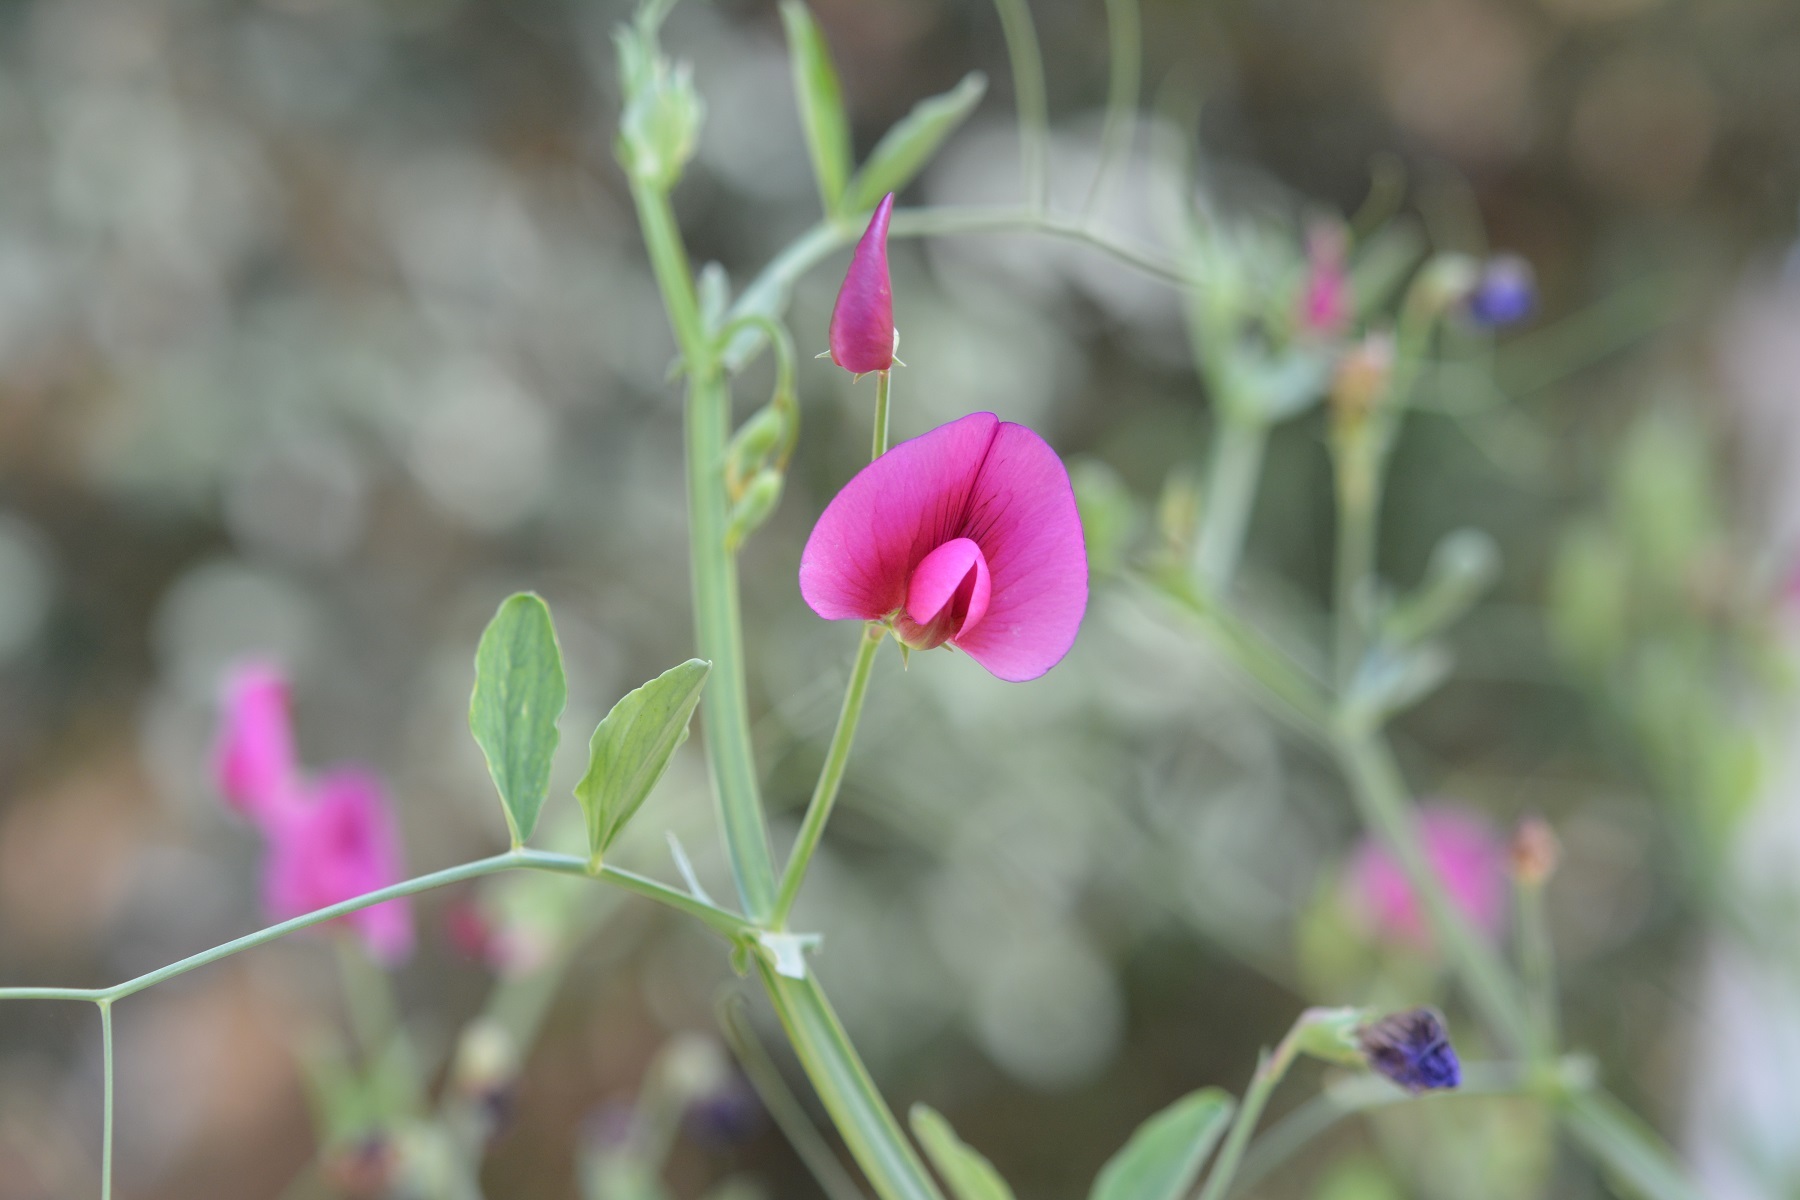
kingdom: Plantae
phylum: Tracheophyta
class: Magnoliopsida
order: Fabales
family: Fabaceae
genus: Lathyrus
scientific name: Lathyrus tingitanus
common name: Tangier pea
